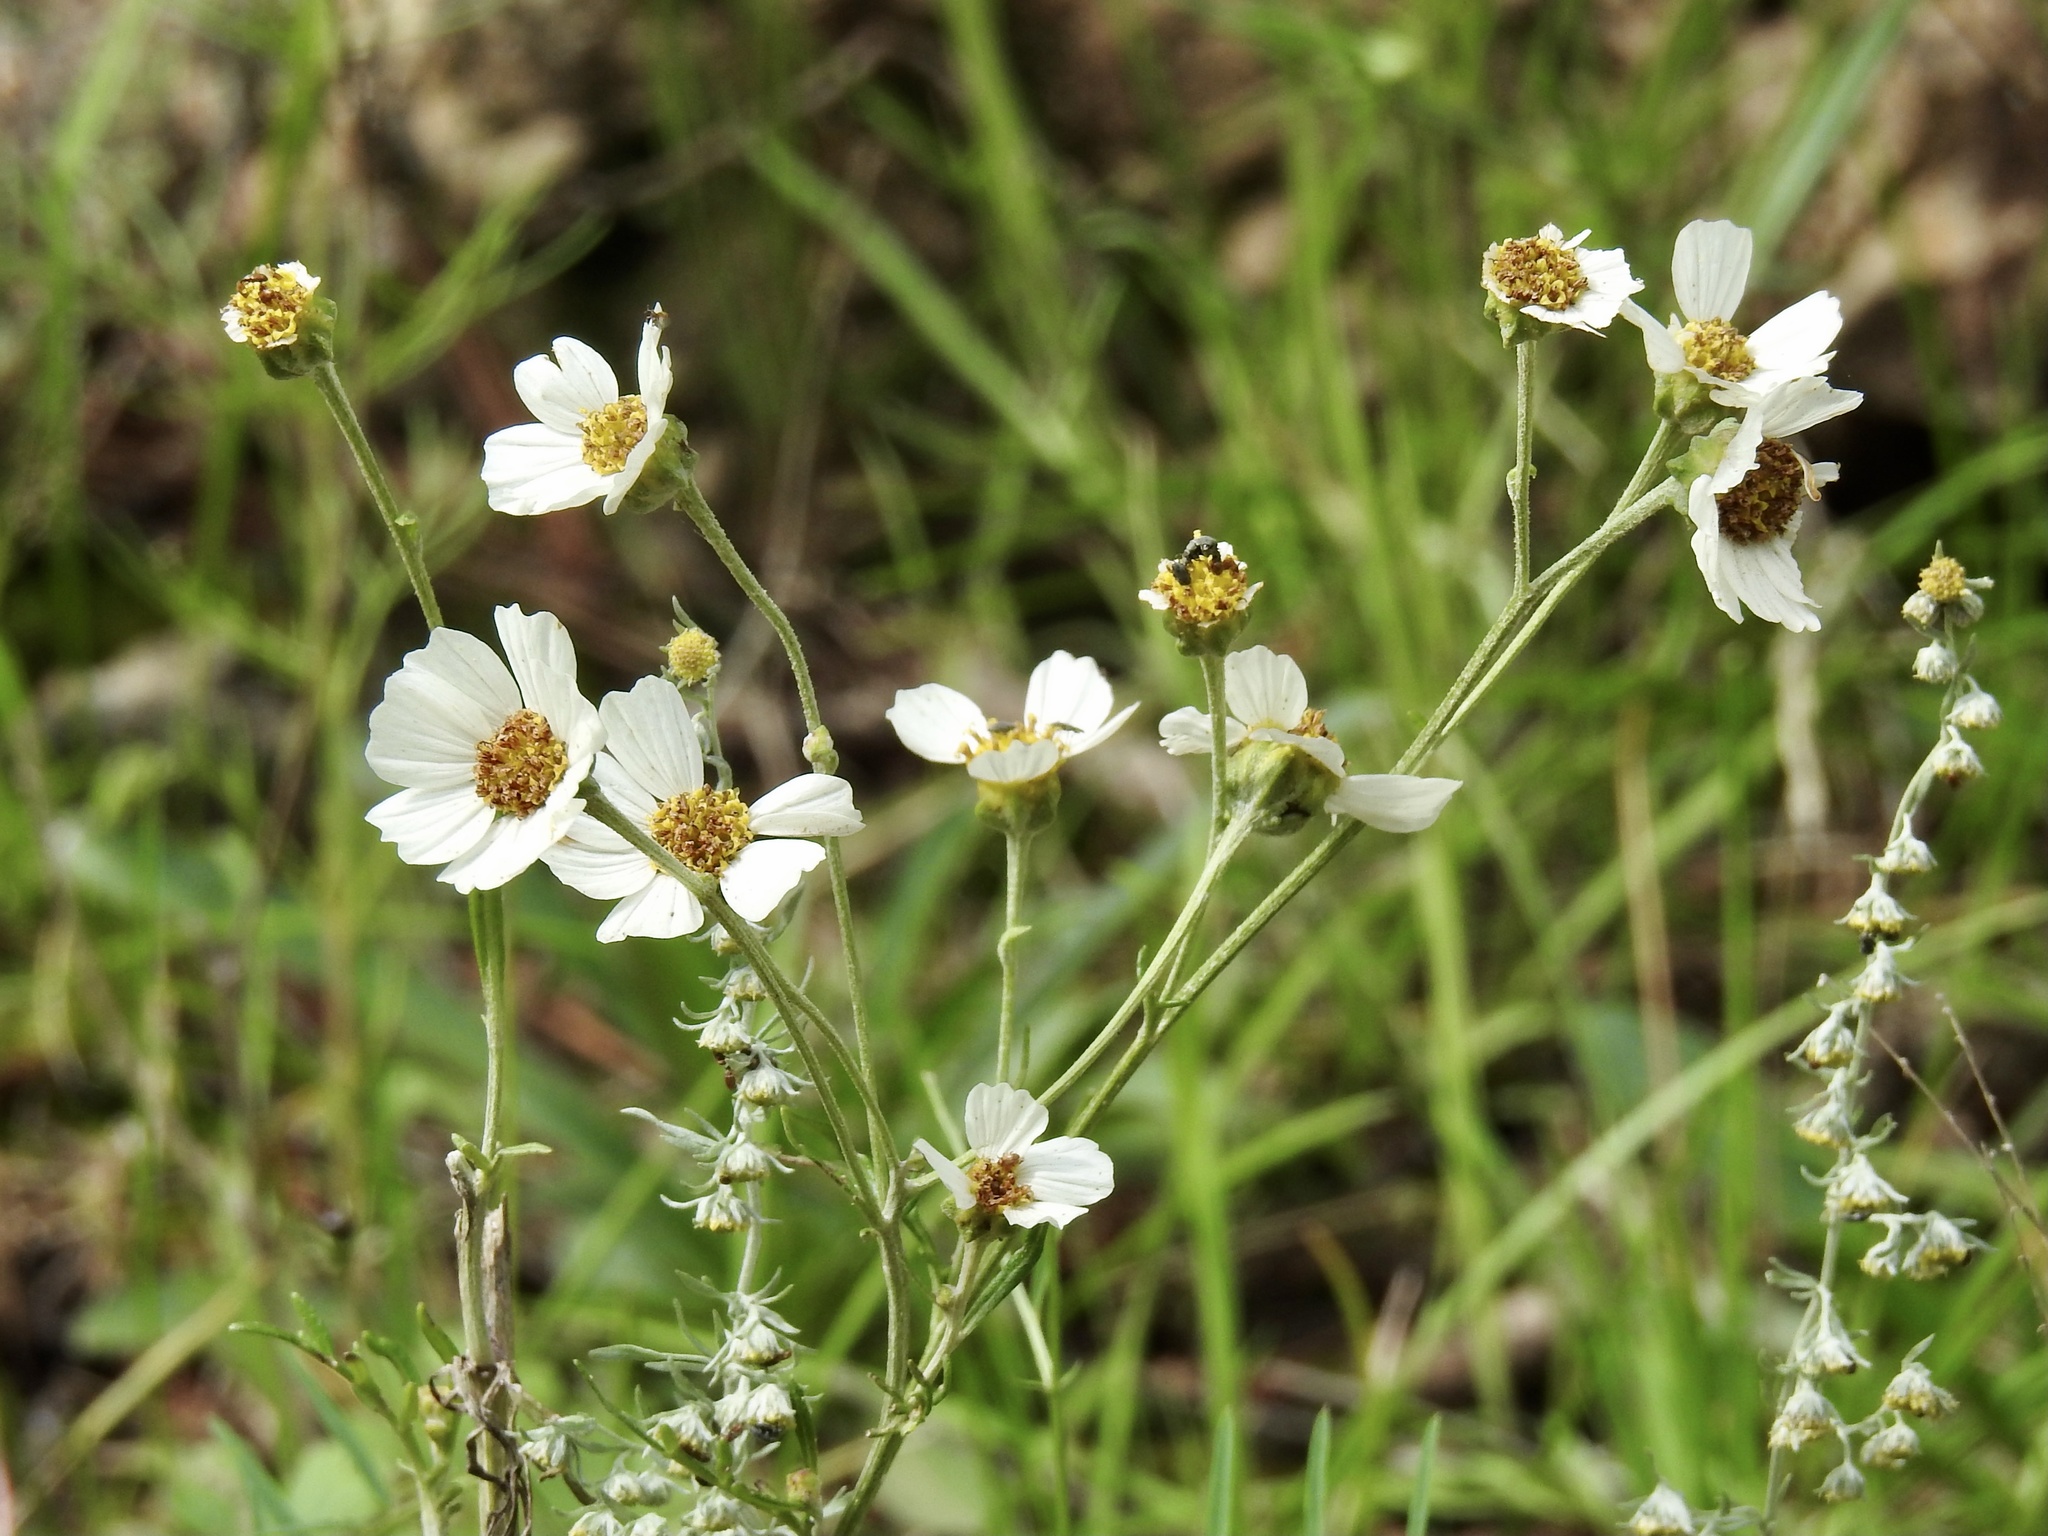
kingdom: Plantae
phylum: Tracheophyta
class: Magnoliopsida
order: Asterales
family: Asteraceae
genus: Bidens
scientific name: Bidens alba
